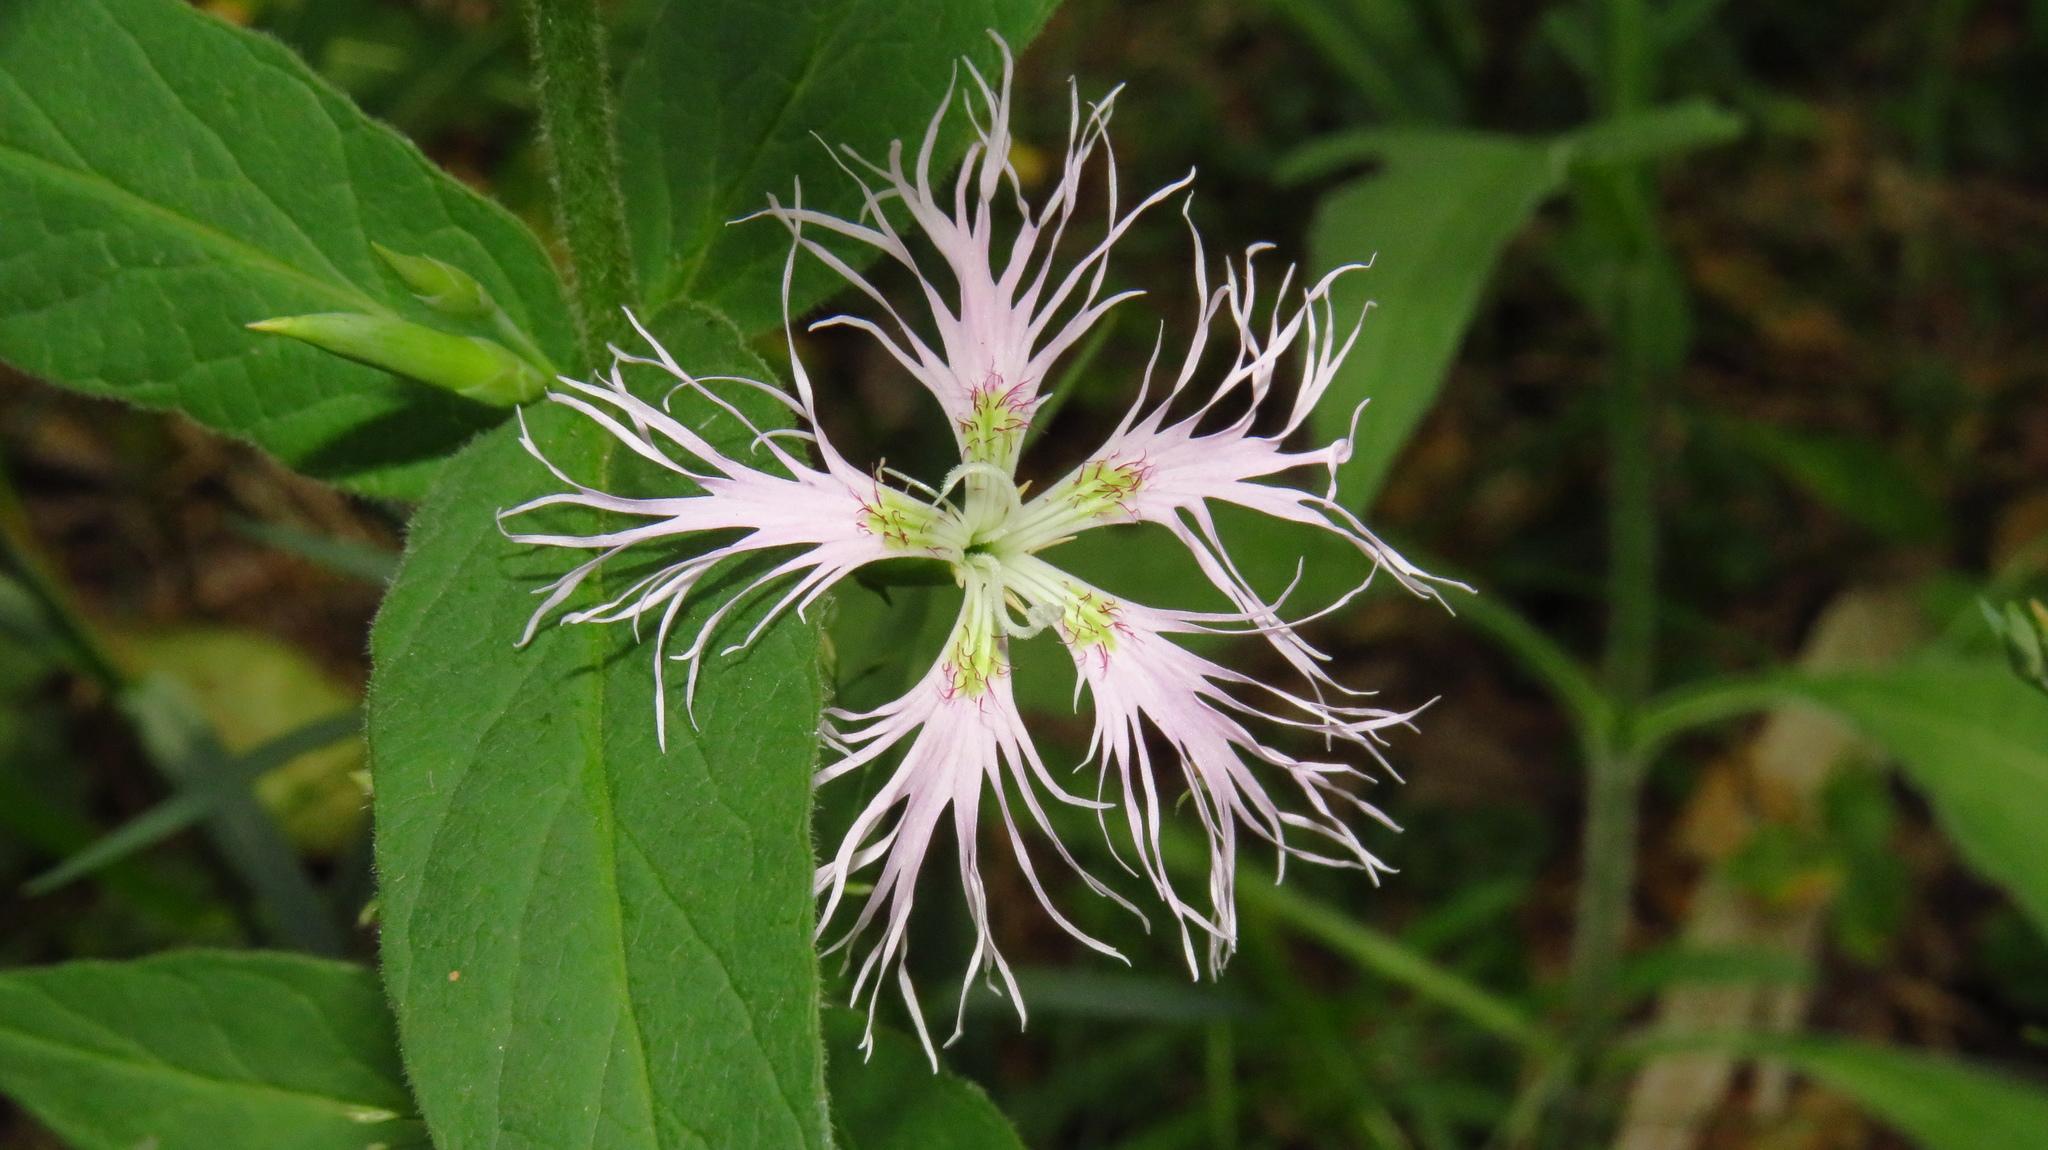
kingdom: Plantae
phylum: Tracheophyta
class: Magnoliopsida
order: Caryophyllales
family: Caryophyllaceae
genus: Dianthus
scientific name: Dianthus superbus
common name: Fringed pink
